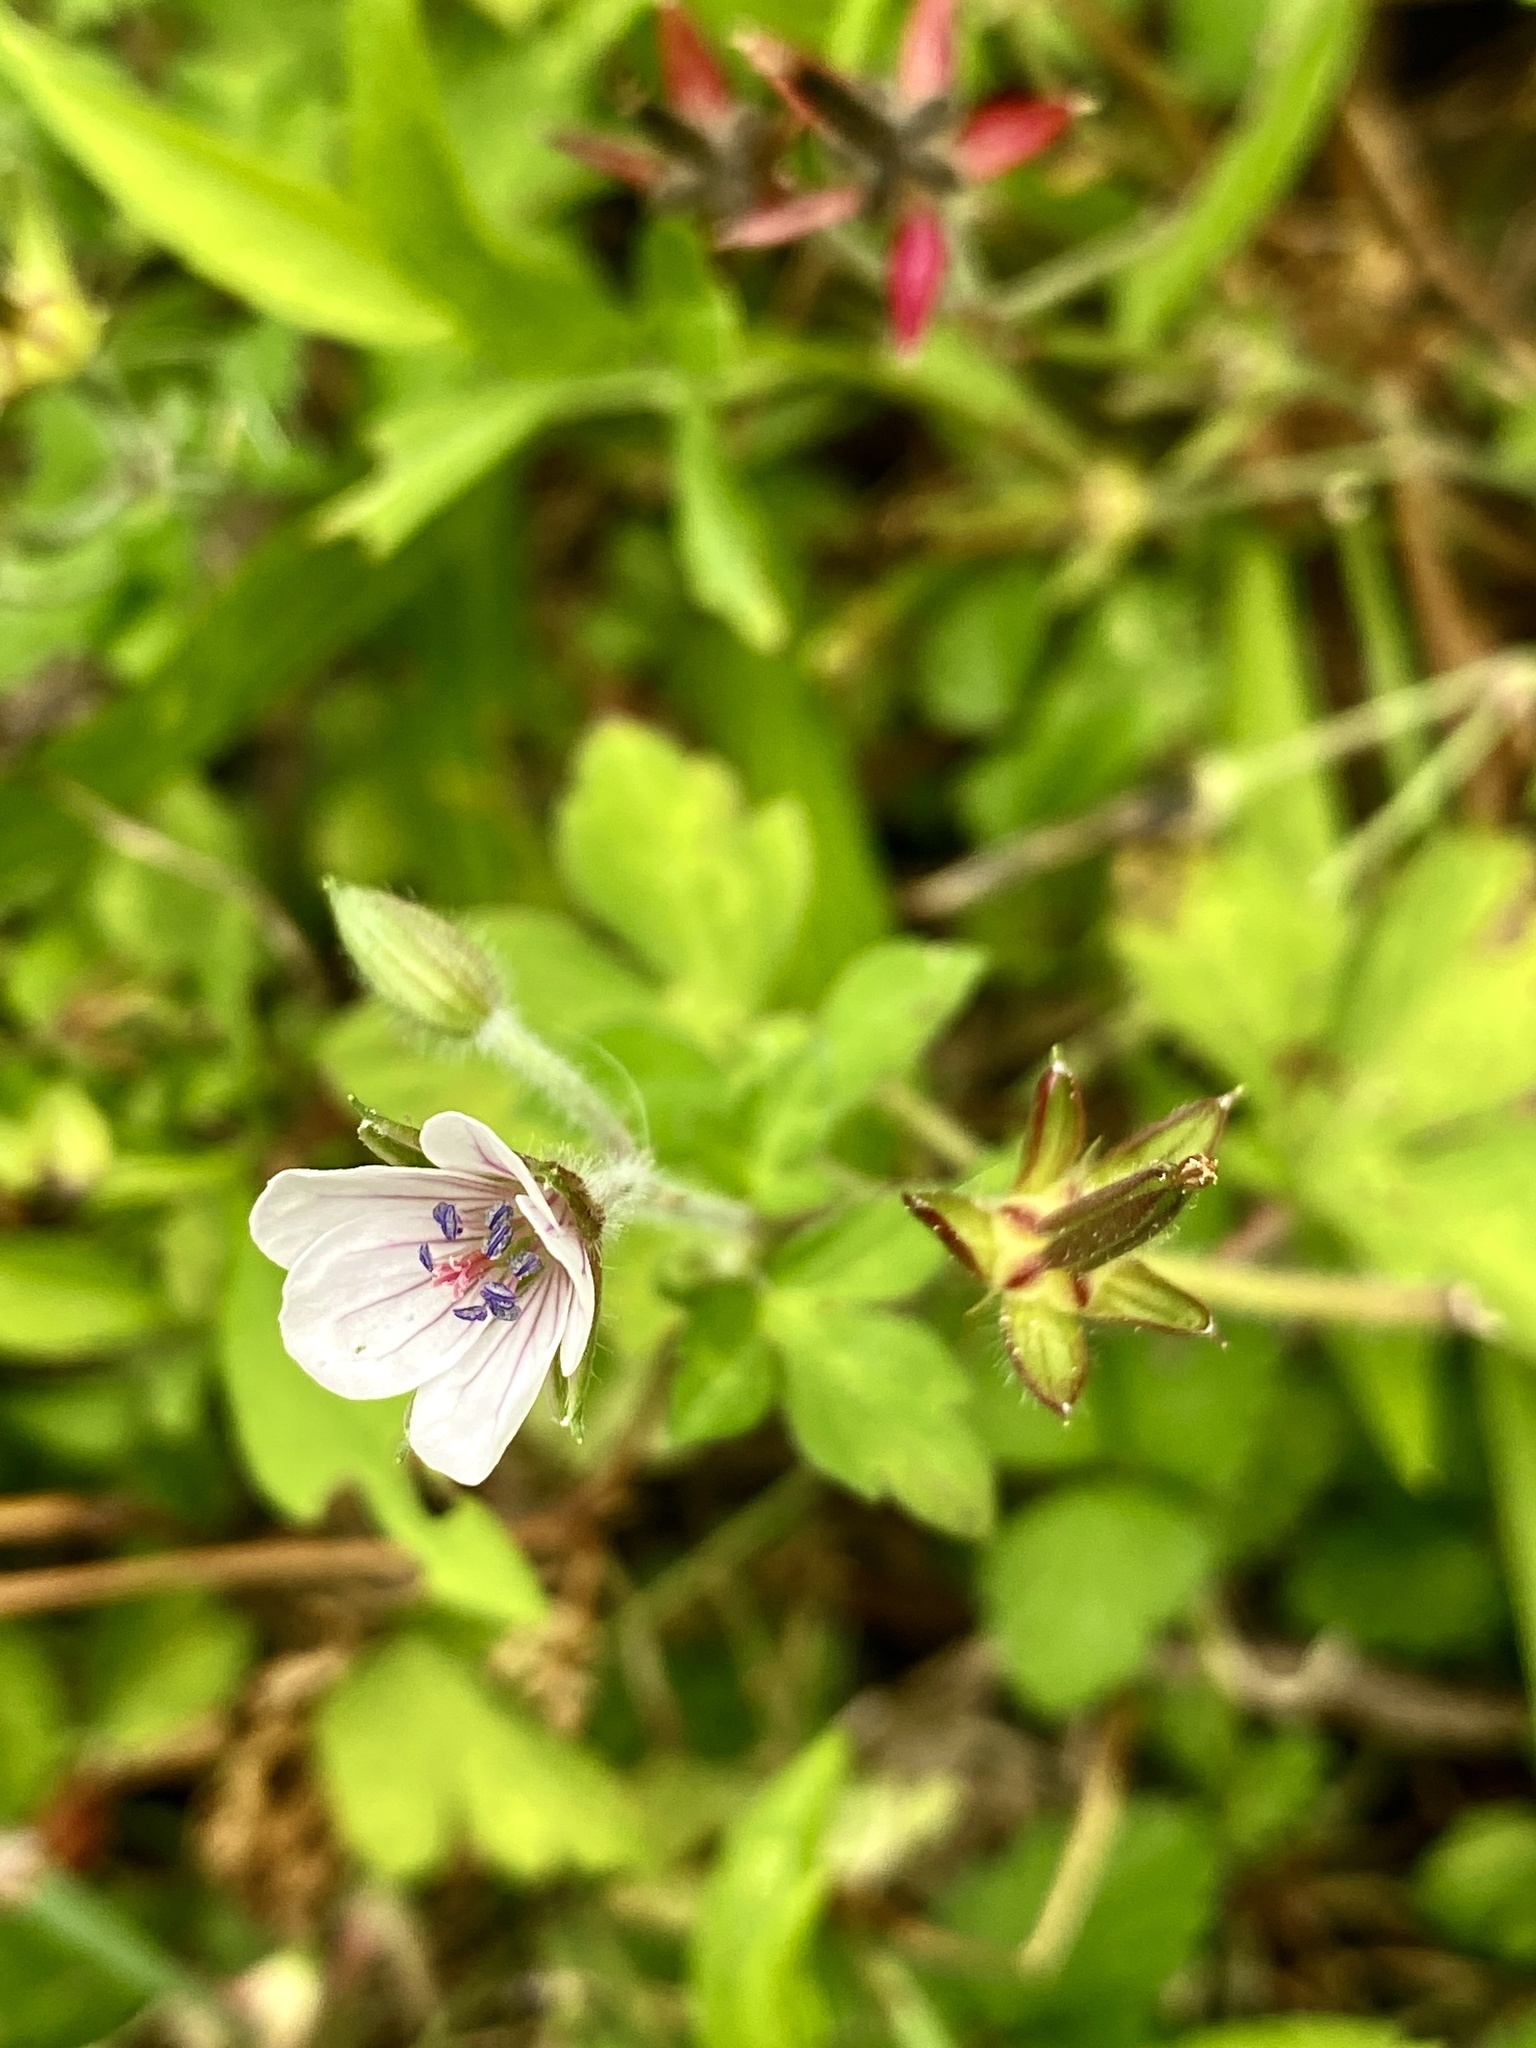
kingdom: Plantae
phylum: Tracheophyta
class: Magnoliopsida
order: Geraniales
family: Geraniaceae
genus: Geranium
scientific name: Geranium thunbergii
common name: Dewdrop crane's-bill
